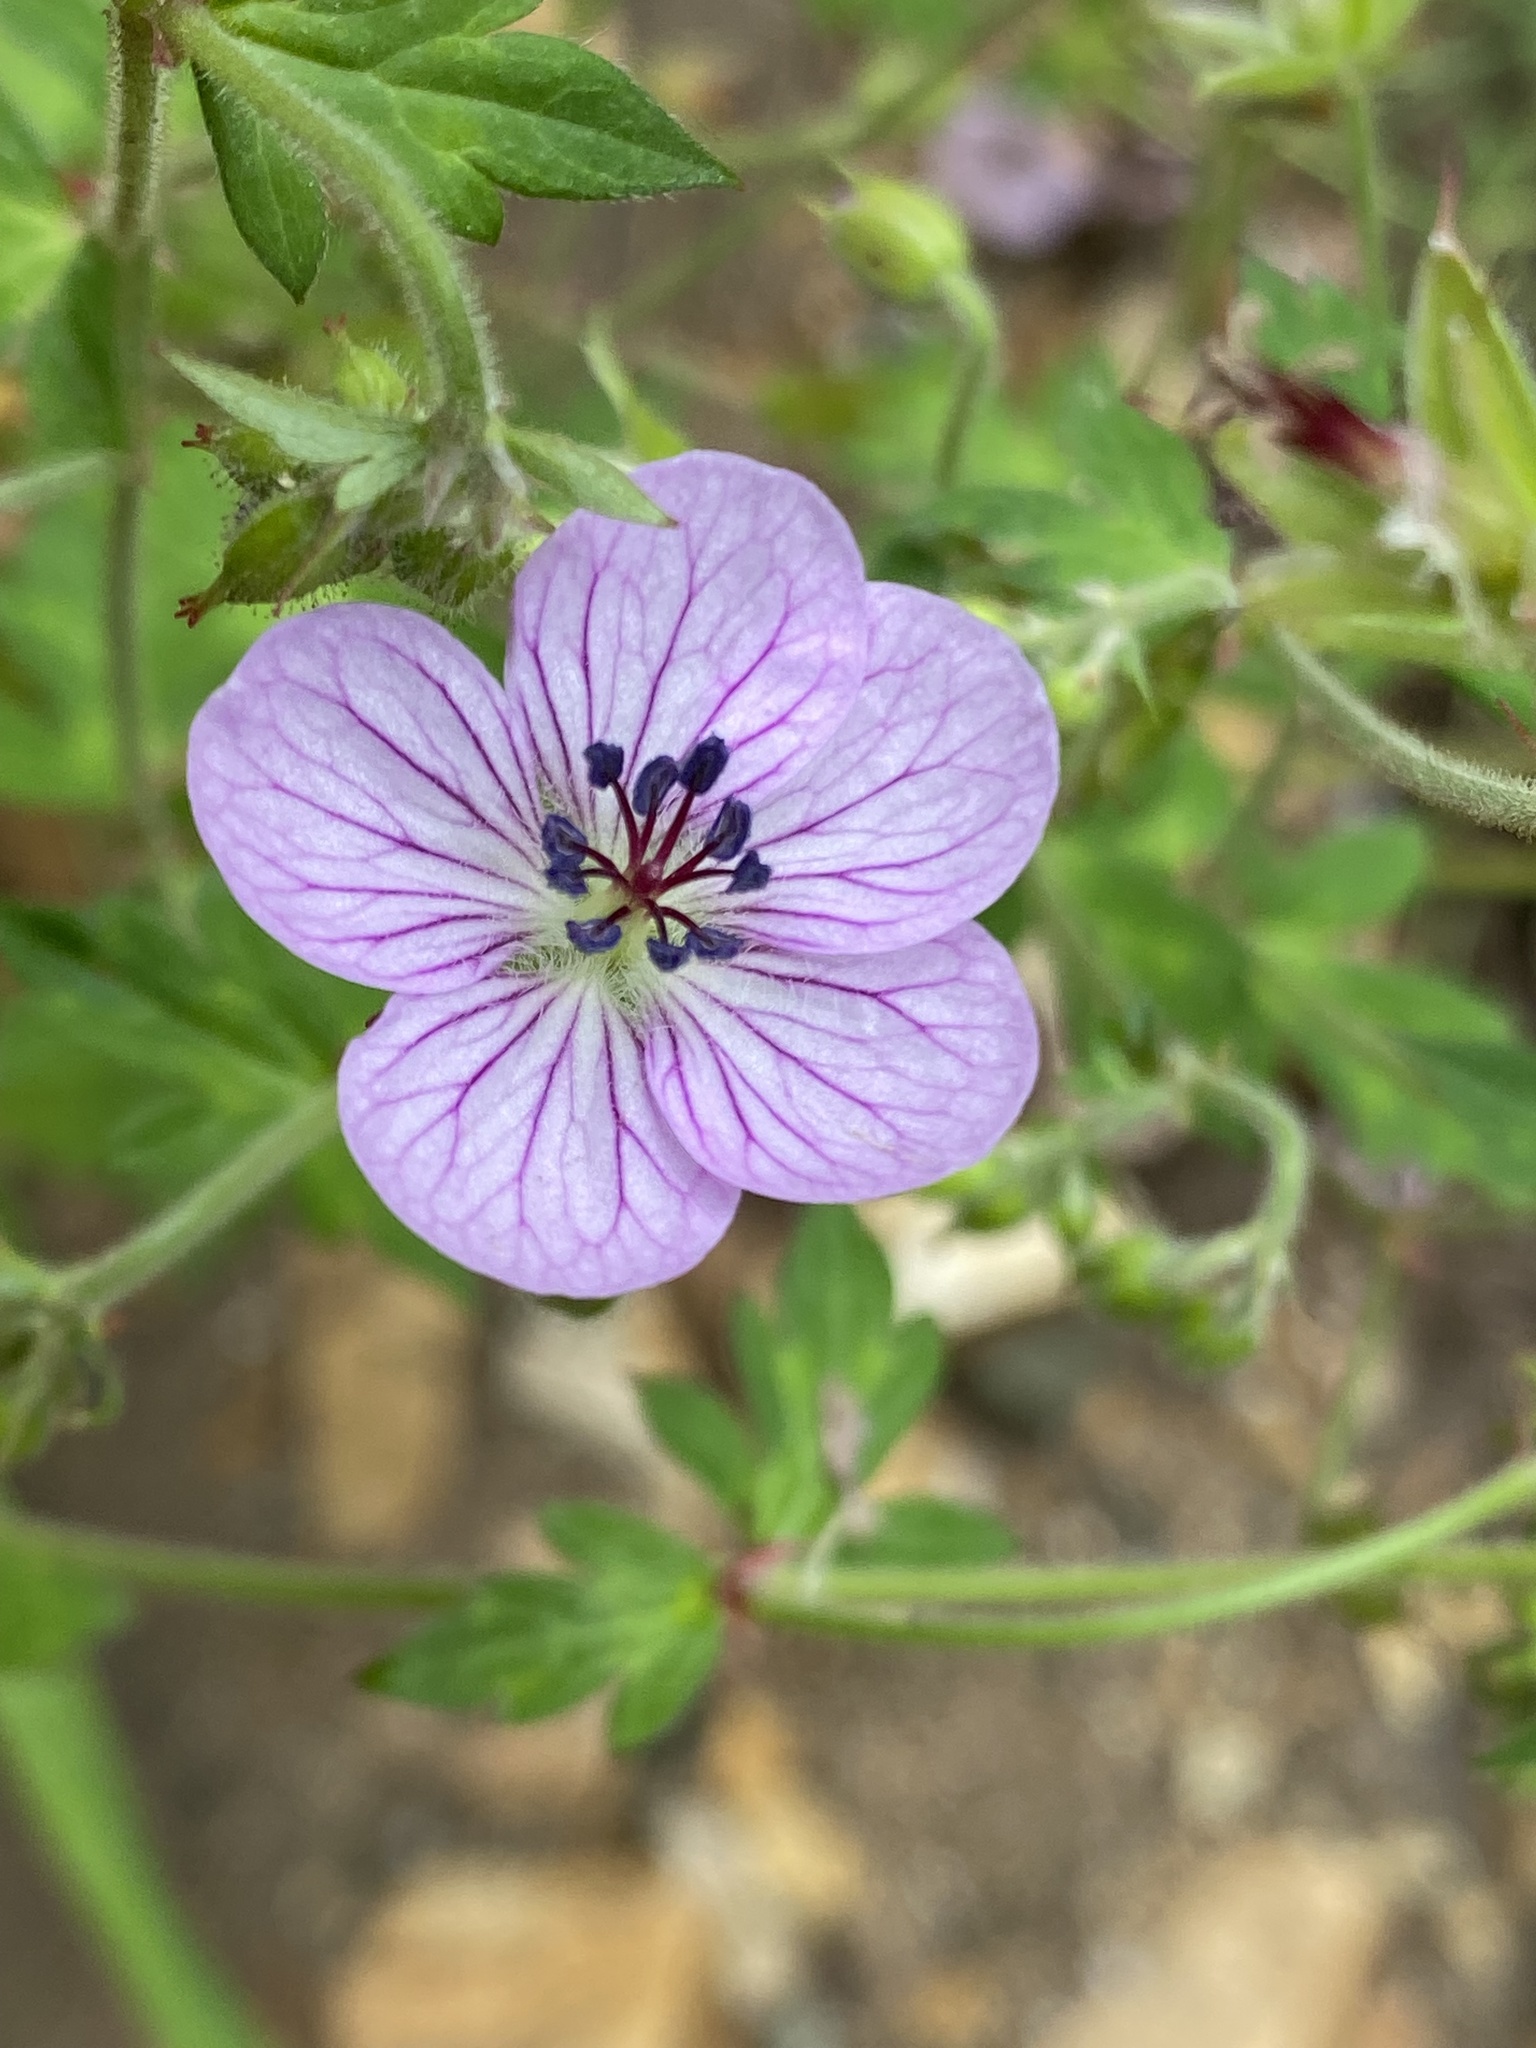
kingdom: Plantae
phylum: Tracheophyta
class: Magnoliopsida
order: Geraniales
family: Geraniaceae
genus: Geranium
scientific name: Geranium richardsonii
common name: Richardson's crane's-bill
